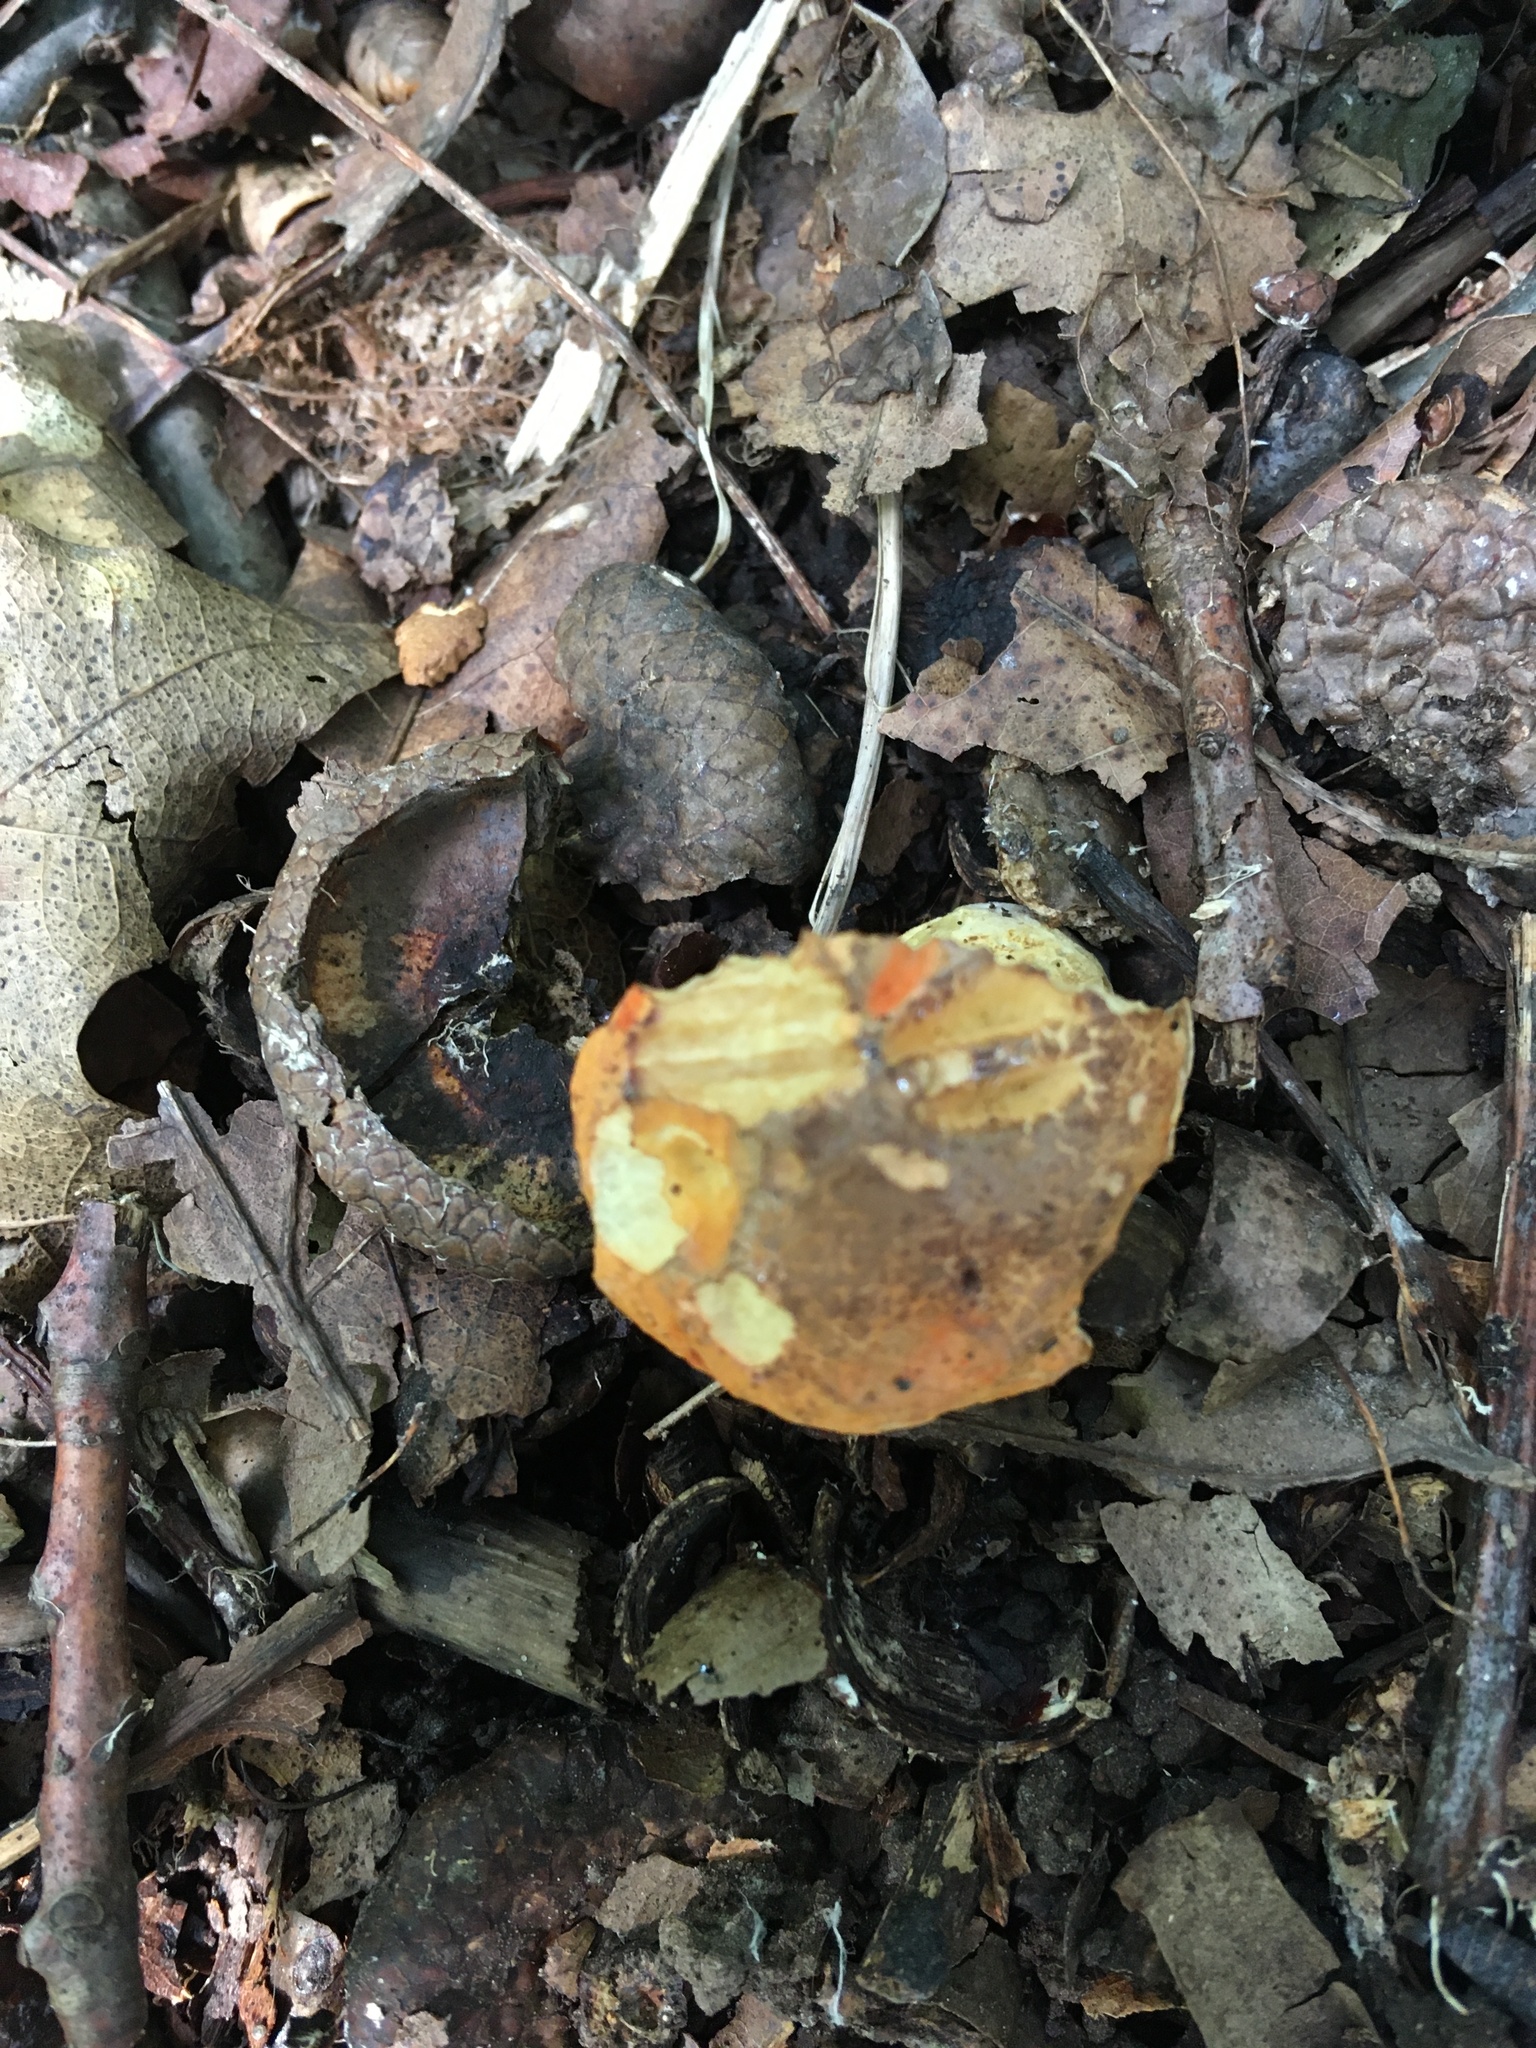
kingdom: Fungi
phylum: Basidiomycota
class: Agaricomycetes
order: Boletales
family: Boletaceae
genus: Tylopilus
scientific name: Tylopilus balloui
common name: Burnt-orange bolete
